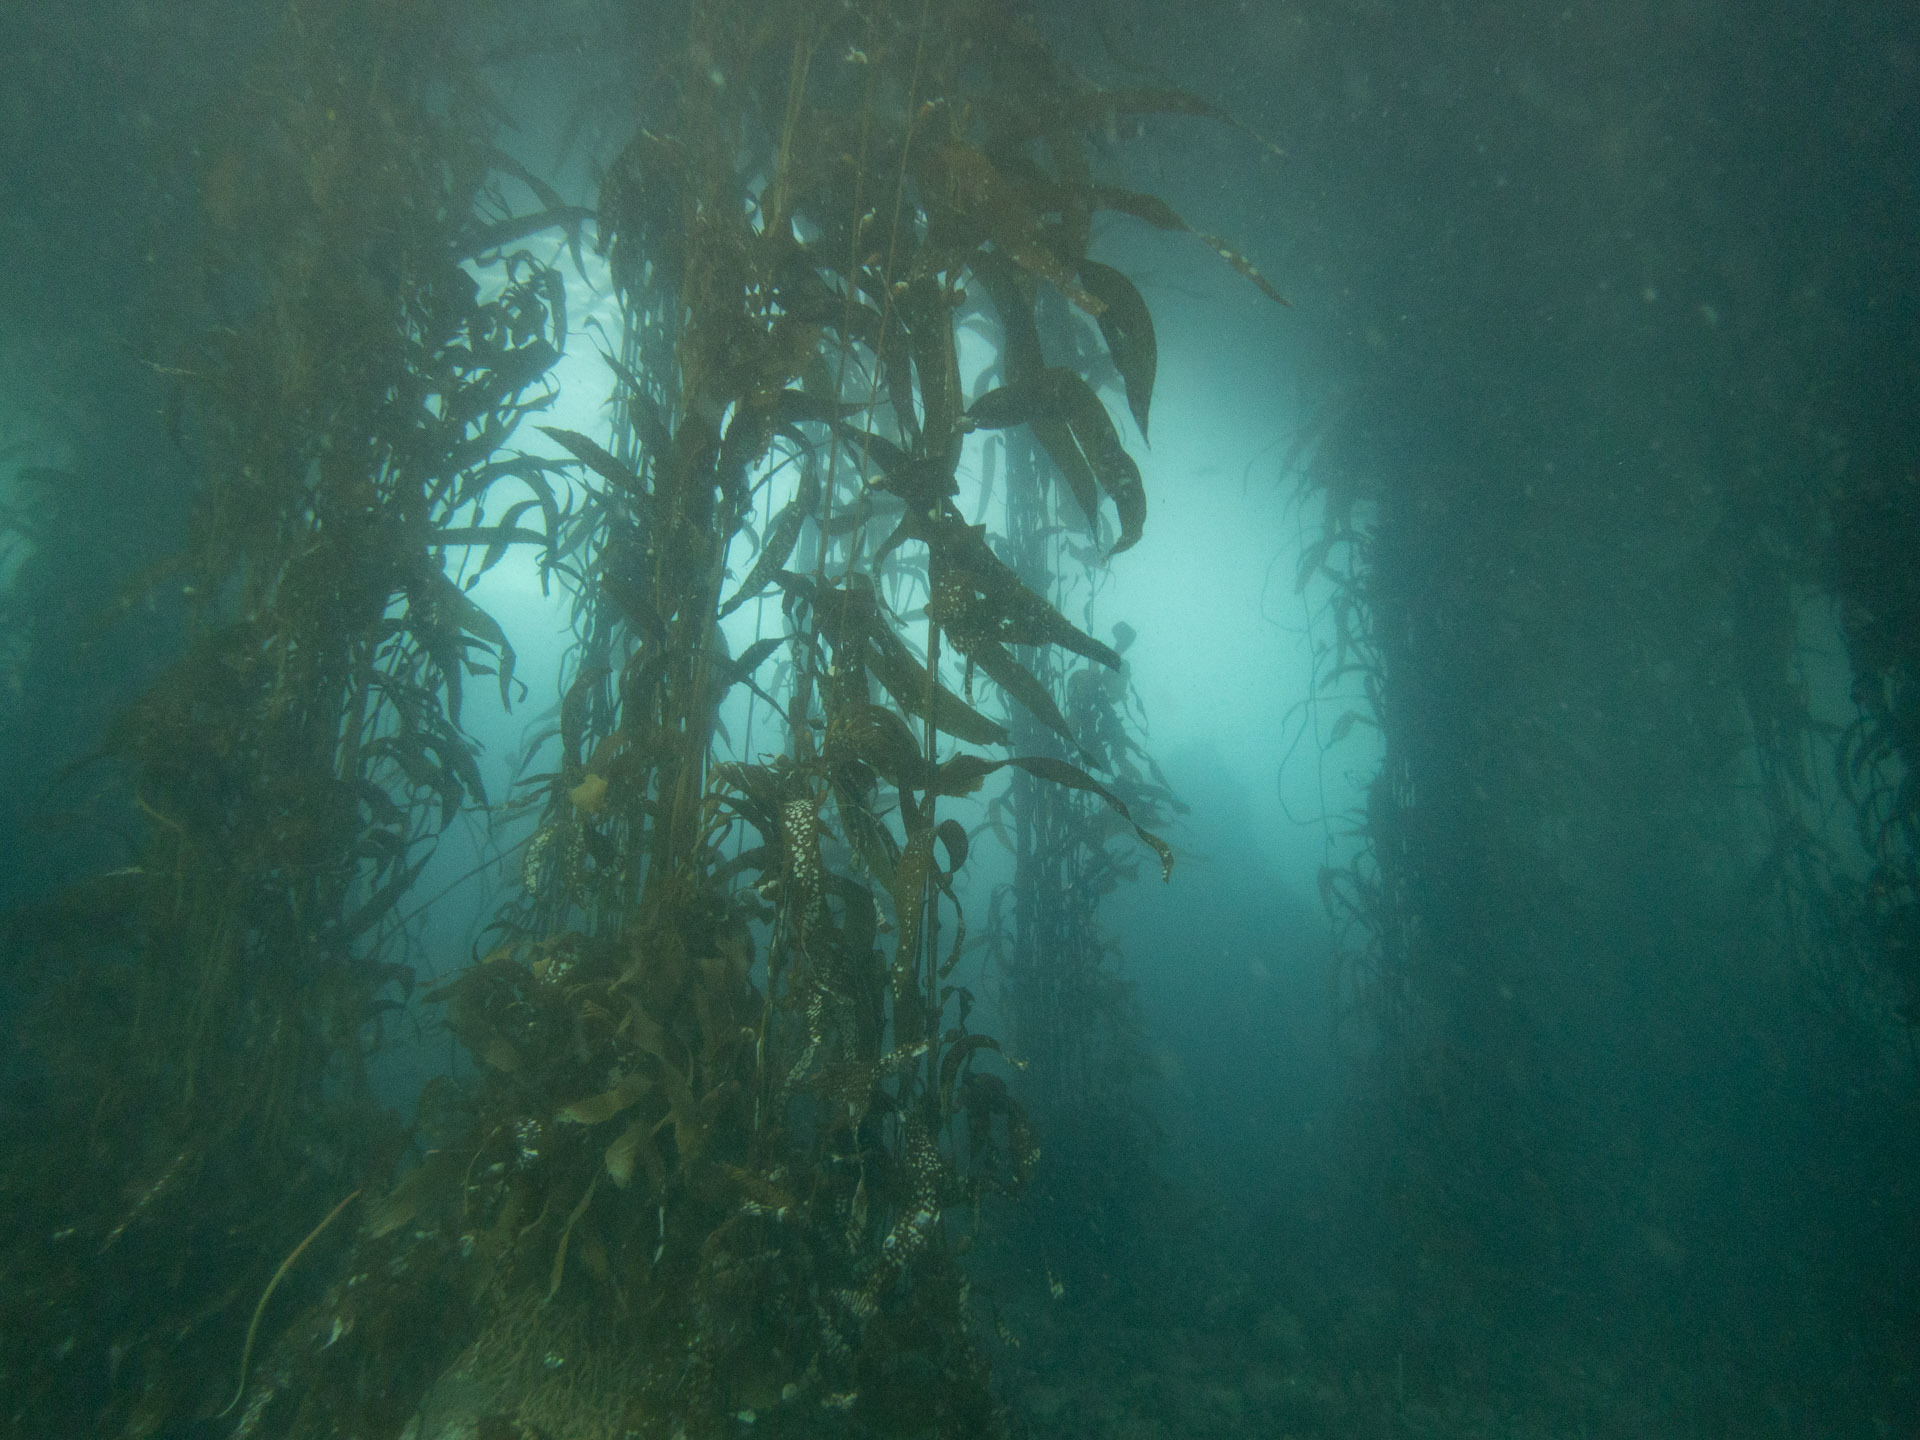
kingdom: Chromista
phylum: Ochrophyta
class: Phaeophyceae
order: Laminariales
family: Laminariaceae
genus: Macrocystis
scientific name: Macrocystis pyrifera
